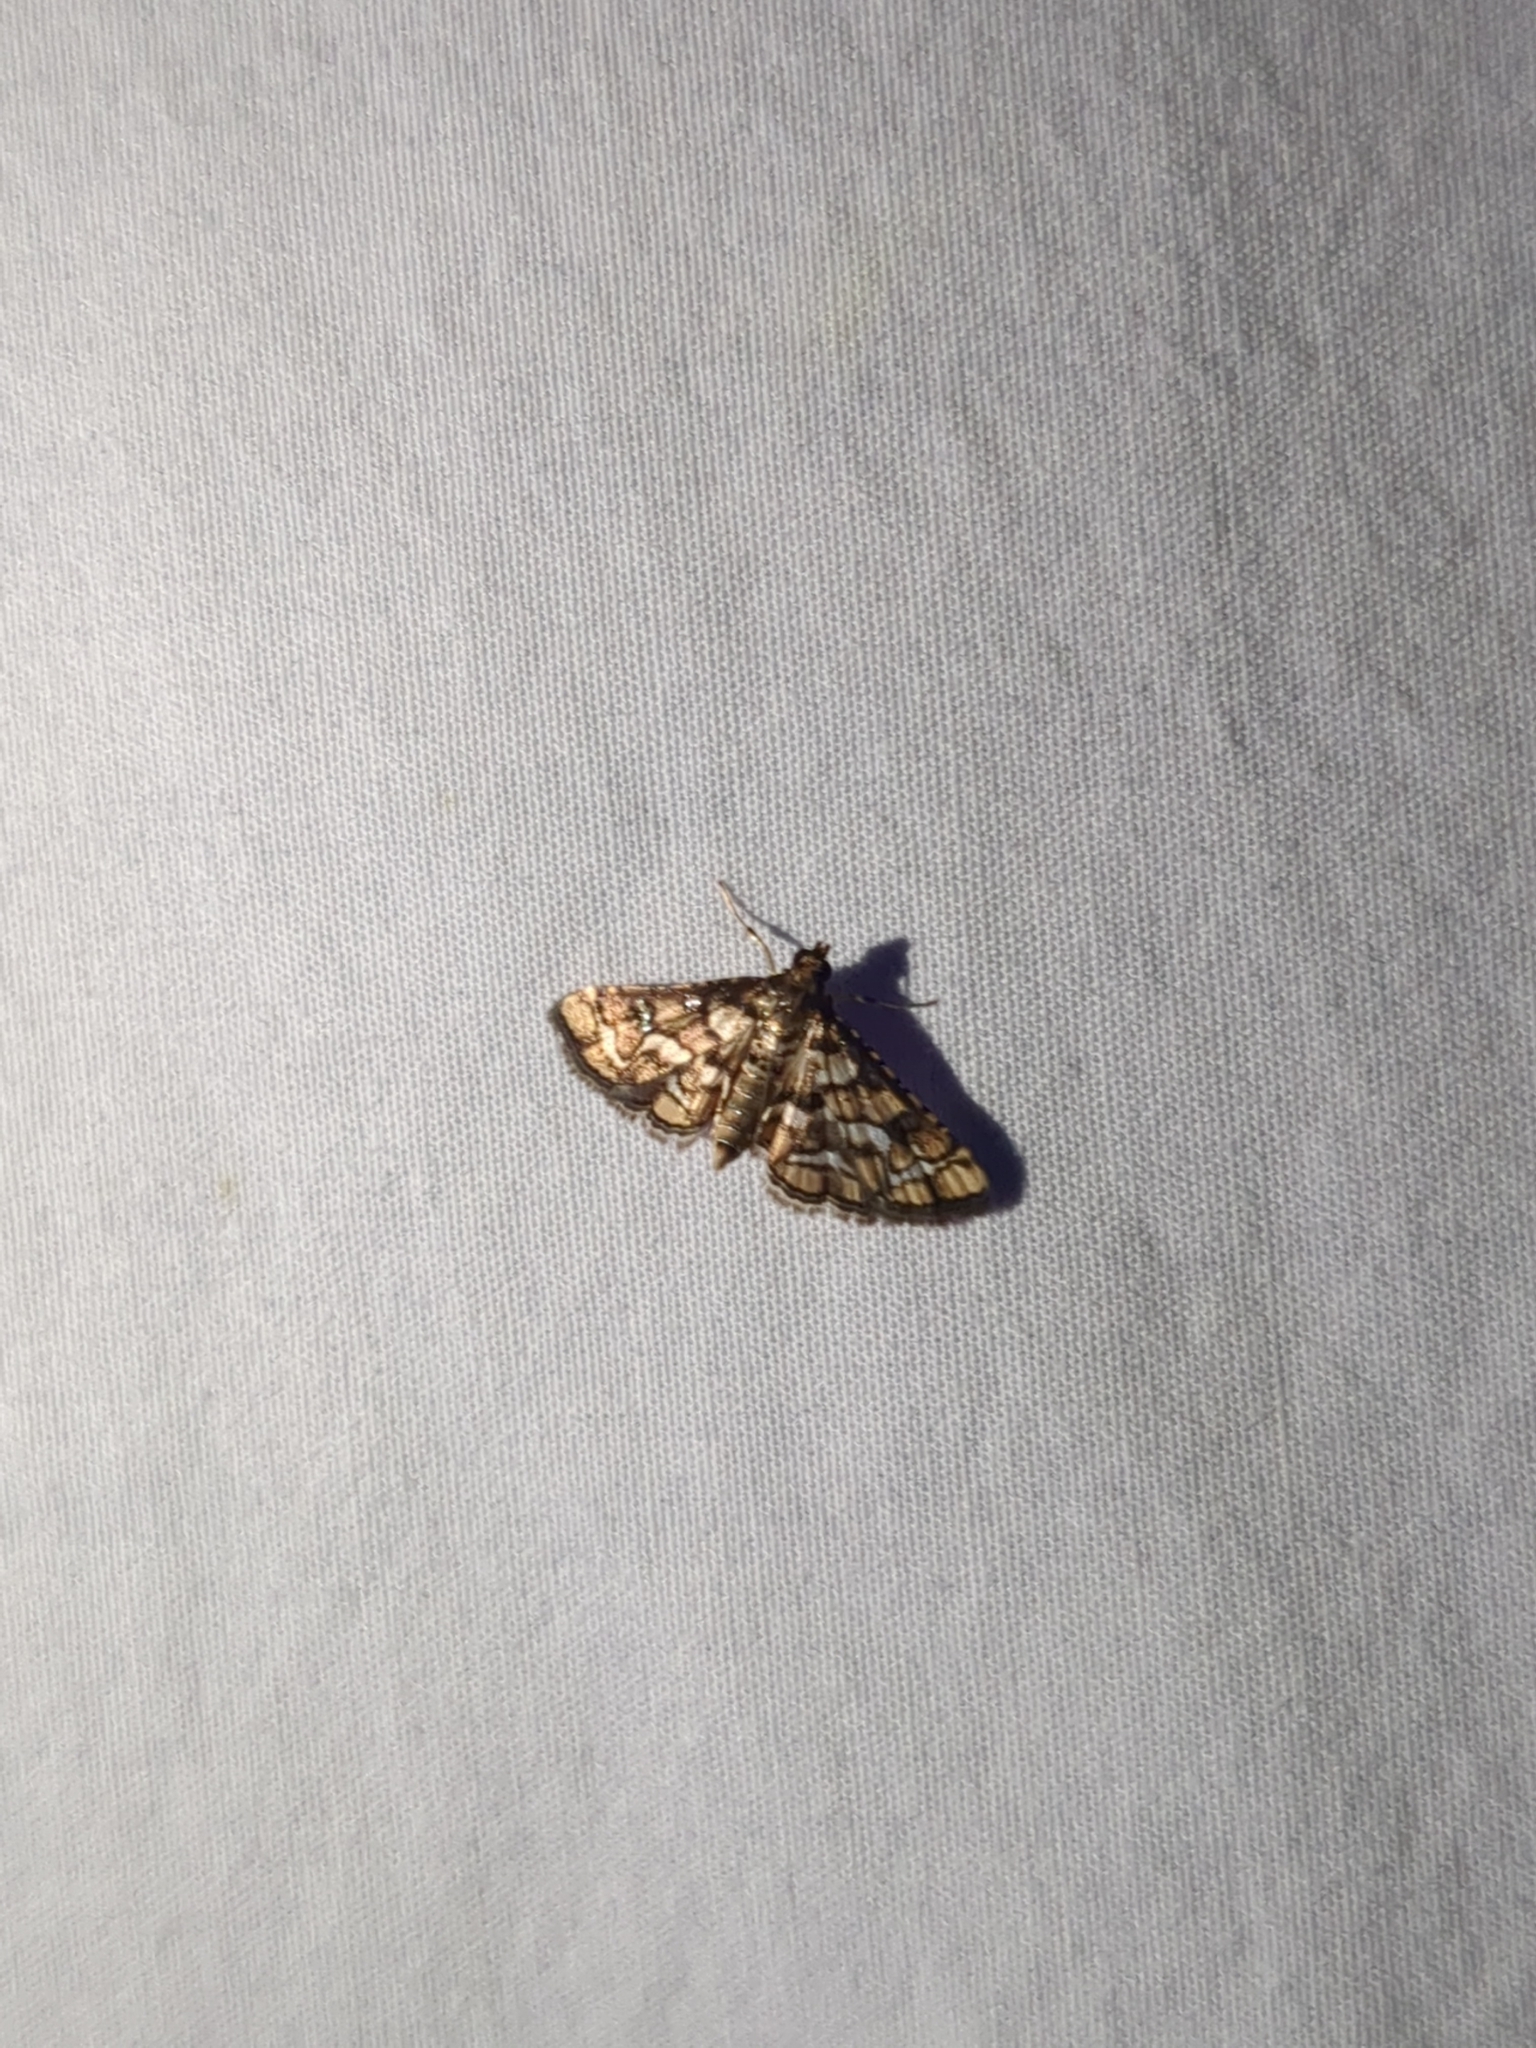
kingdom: Animalia
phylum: Arthropoda
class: Insecta
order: Lepidoptera
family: Crambidae
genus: Hileithia
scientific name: Hileithia magualis
